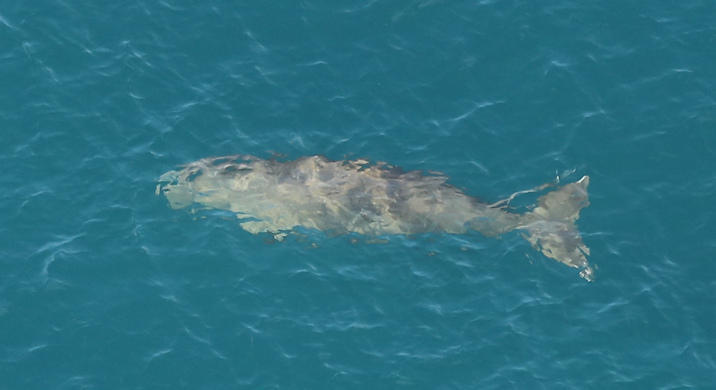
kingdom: Animalia
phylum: Chordata
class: Mammalia
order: Sirenia
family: Dugongidae
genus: Dugong
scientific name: Dugong dugon
